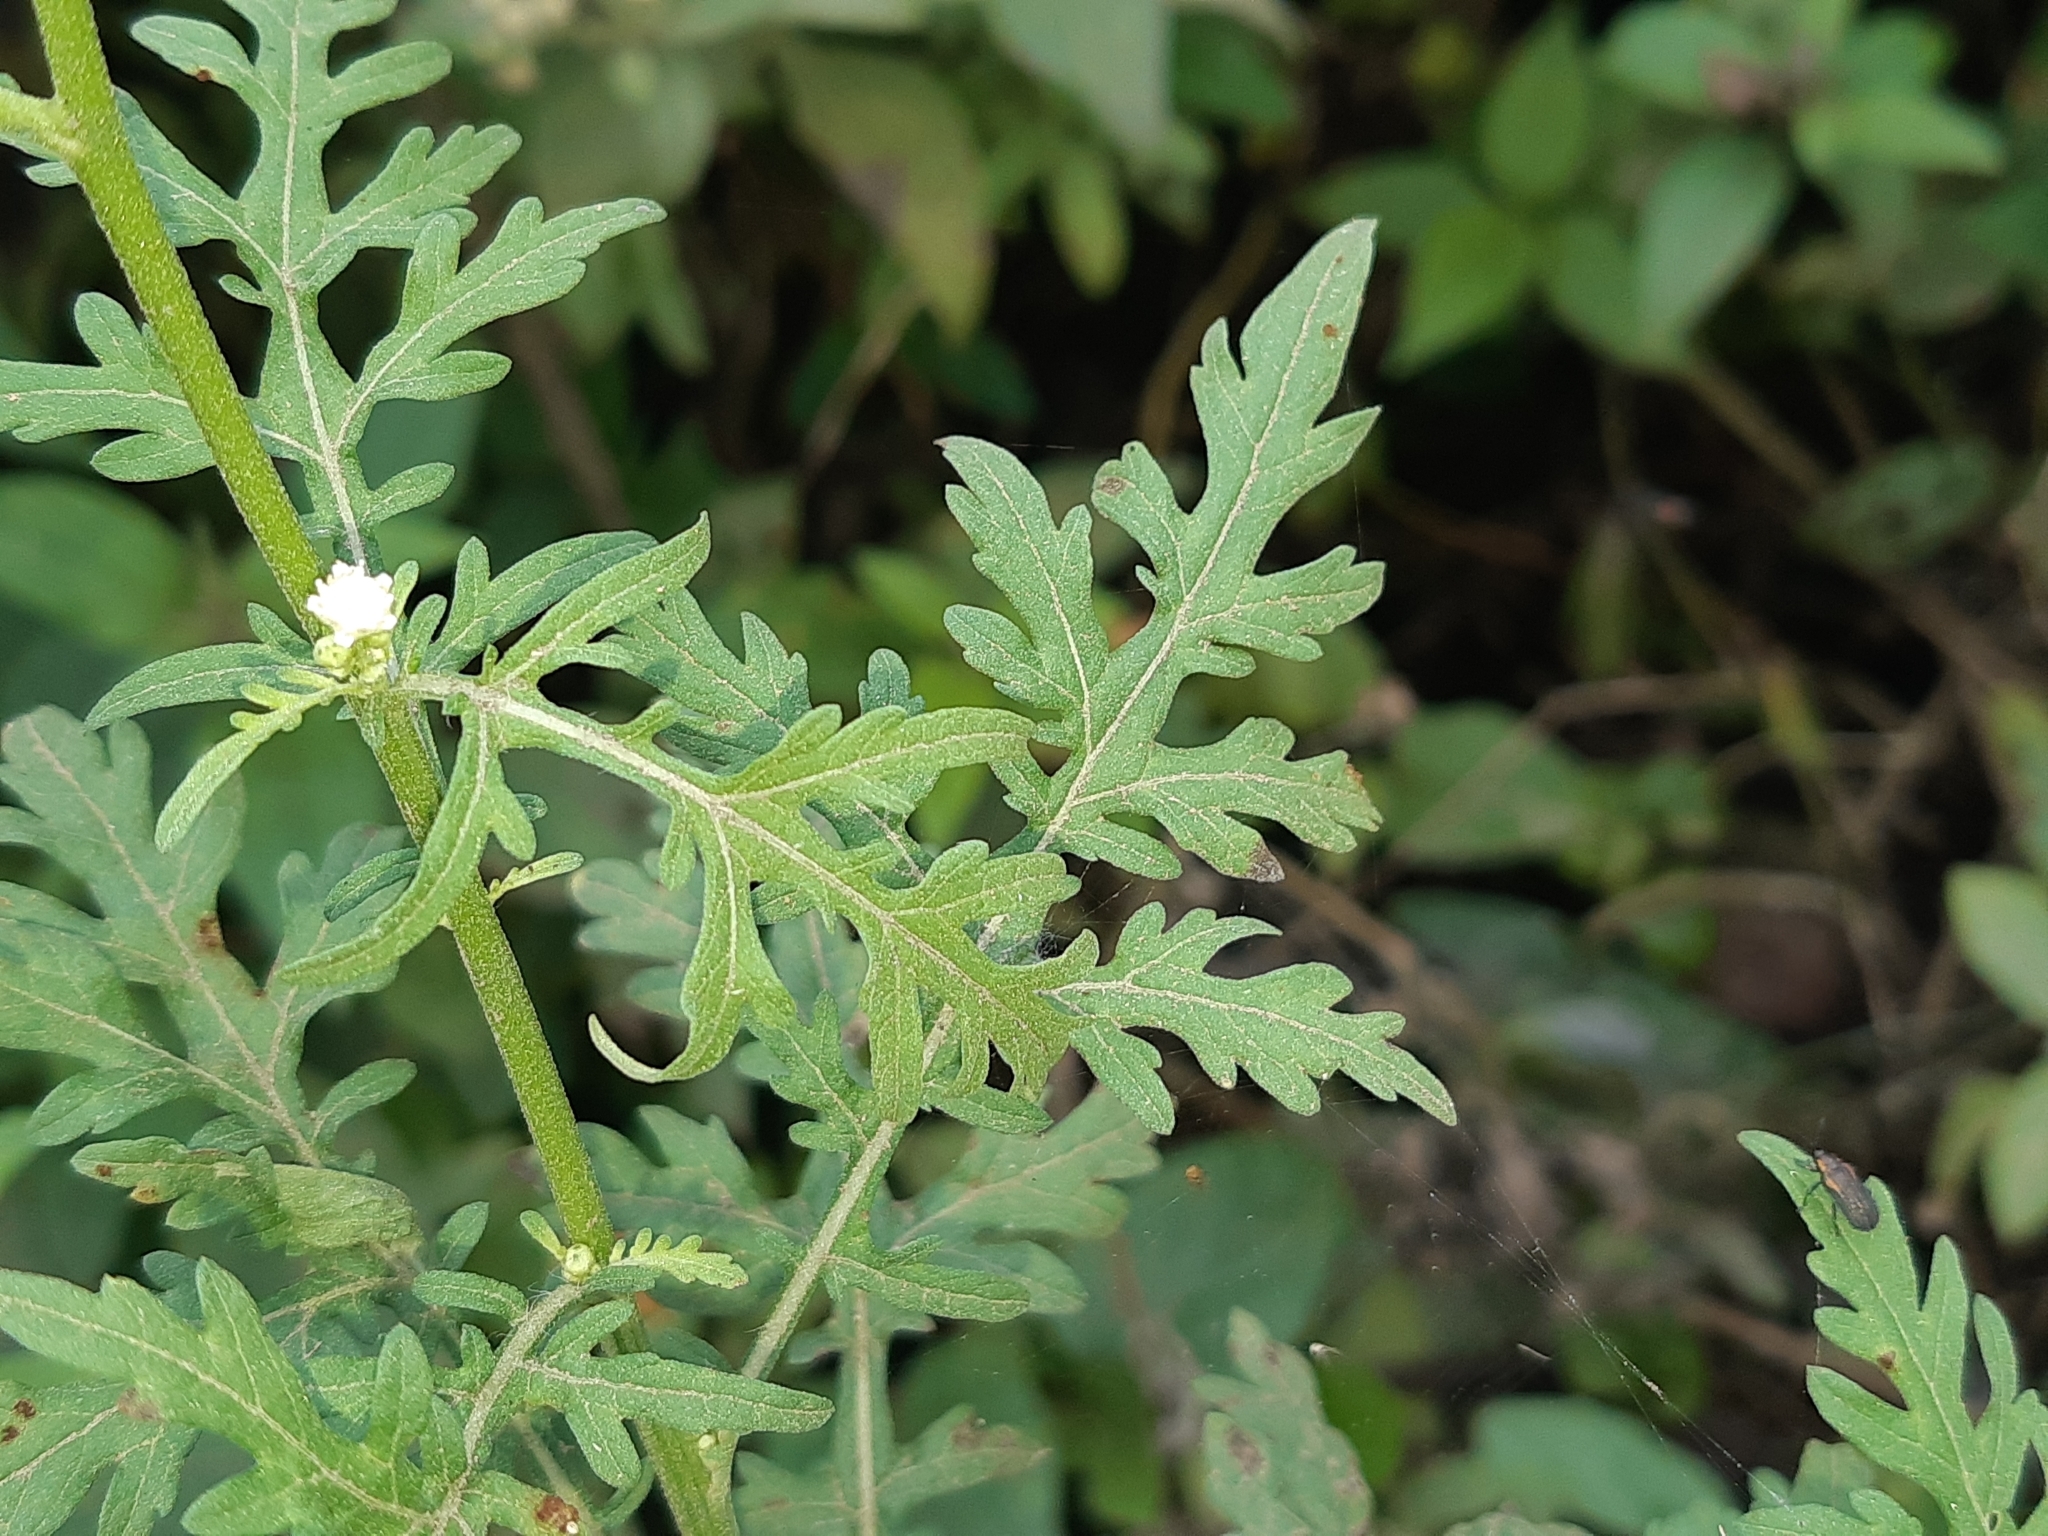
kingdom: Plantae
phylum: Tracheophyta
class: Magnoliopsida
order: Asterales
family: Asteraceae
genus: Parthenium
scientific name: Parthenium hysterophorus
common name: Santa maria feverfew
